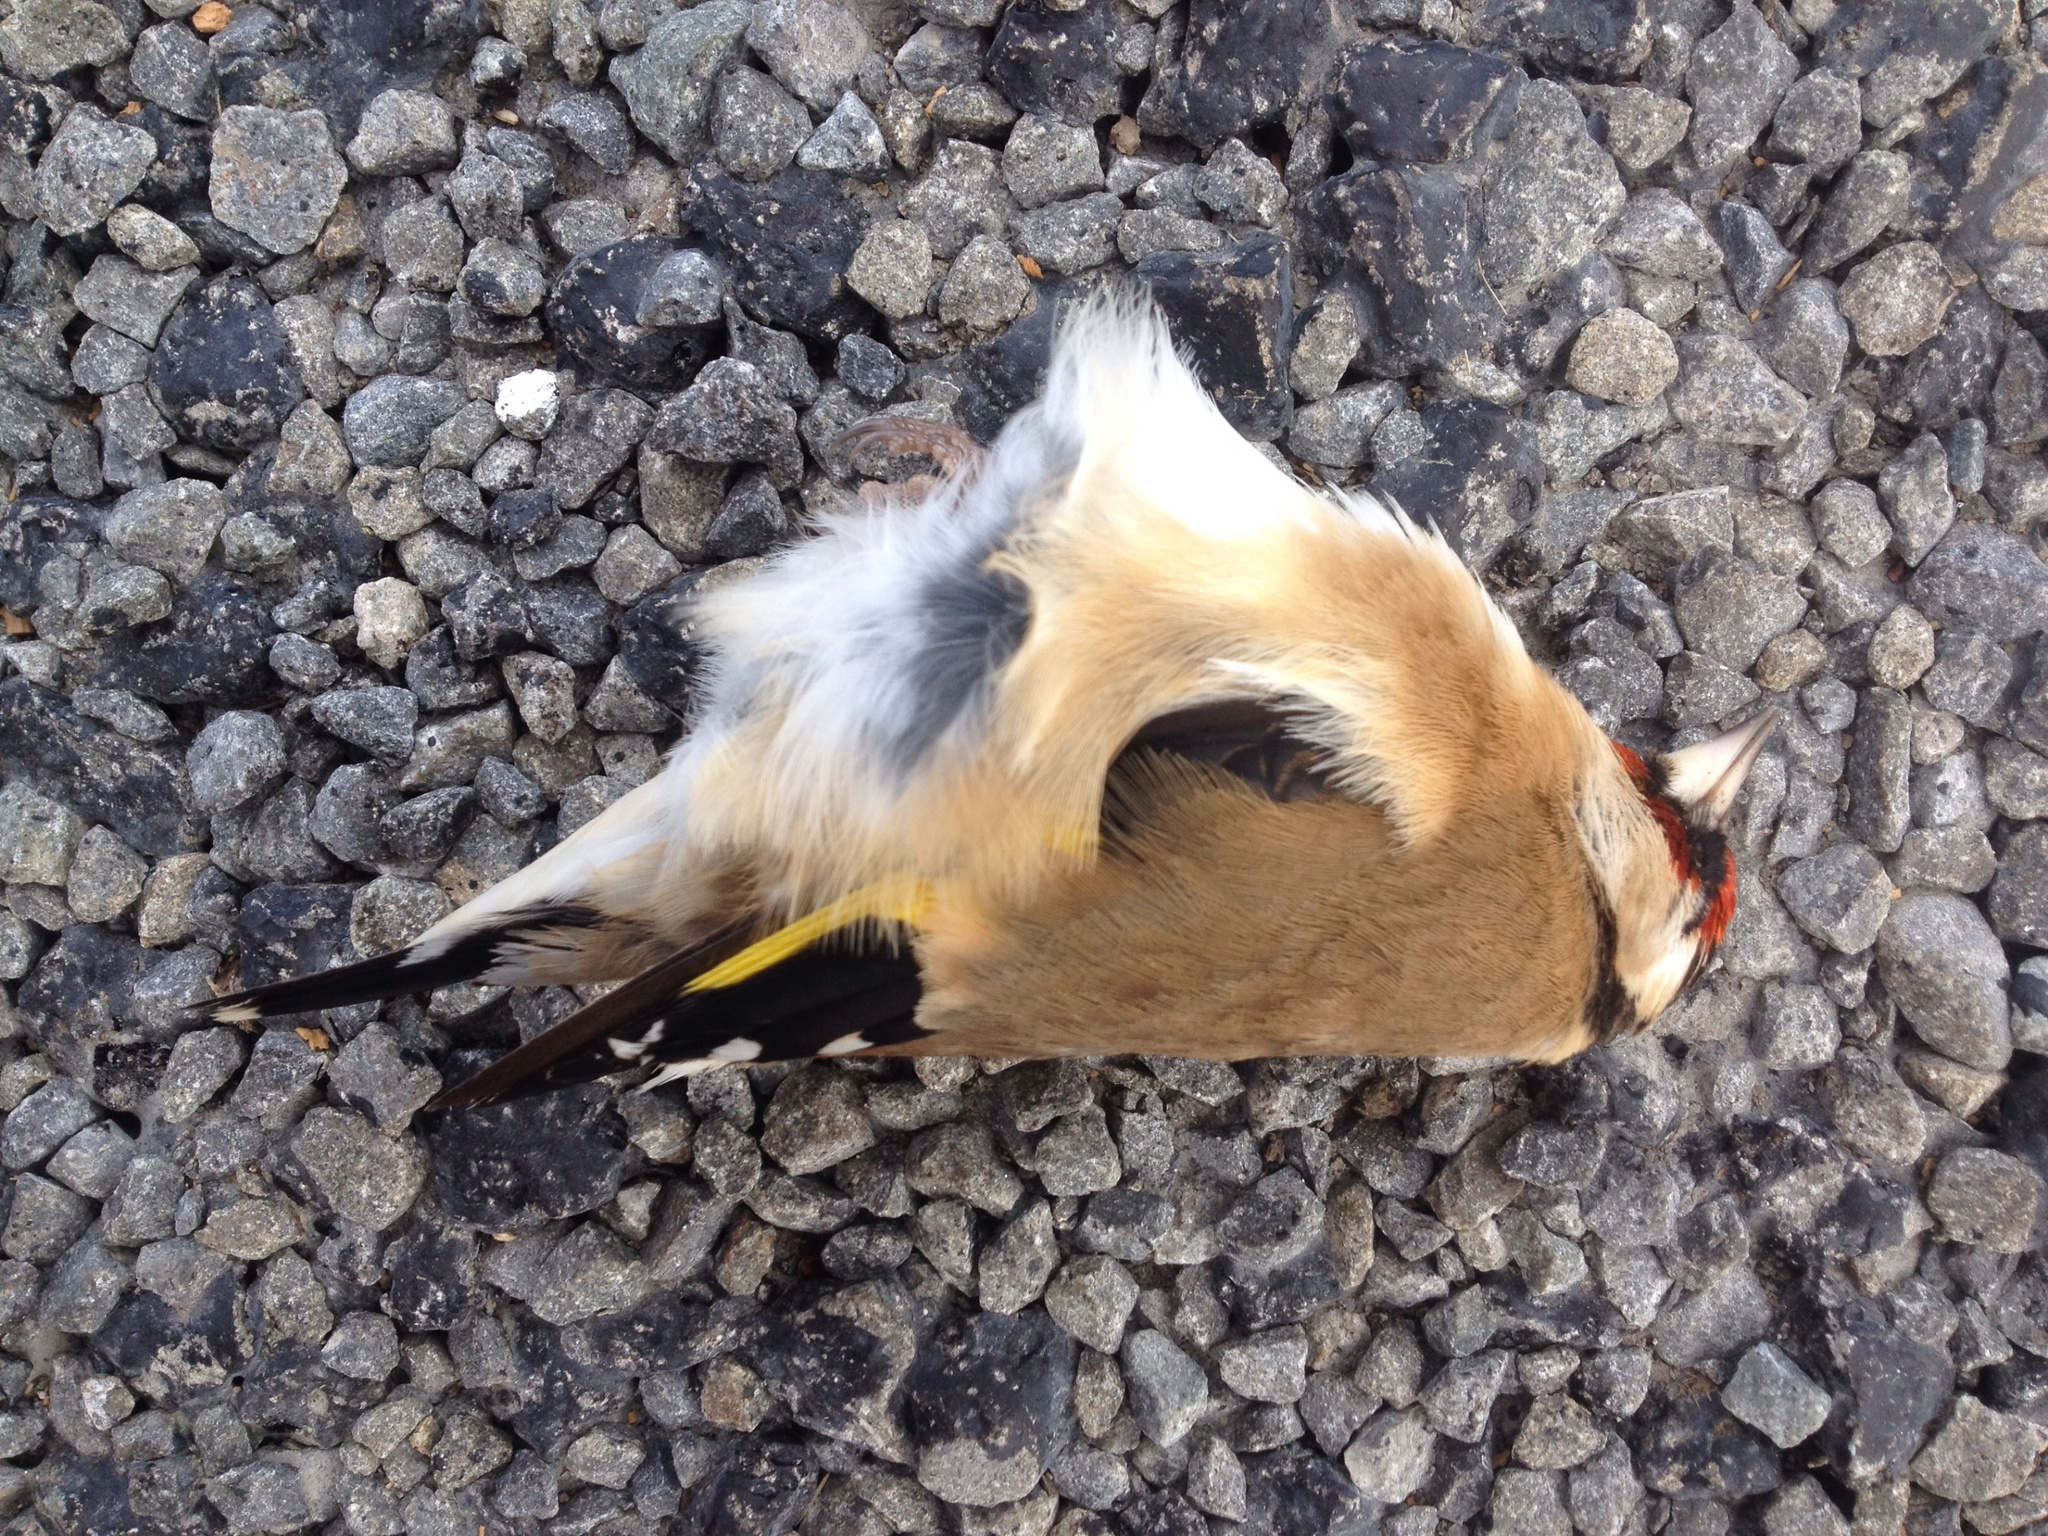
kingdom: Animalia
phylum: Chordata
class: Aves
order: Passeriformes
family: Fringillidae
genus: Carduelis
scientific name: Carduelis carduelis
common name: European goldfinch
